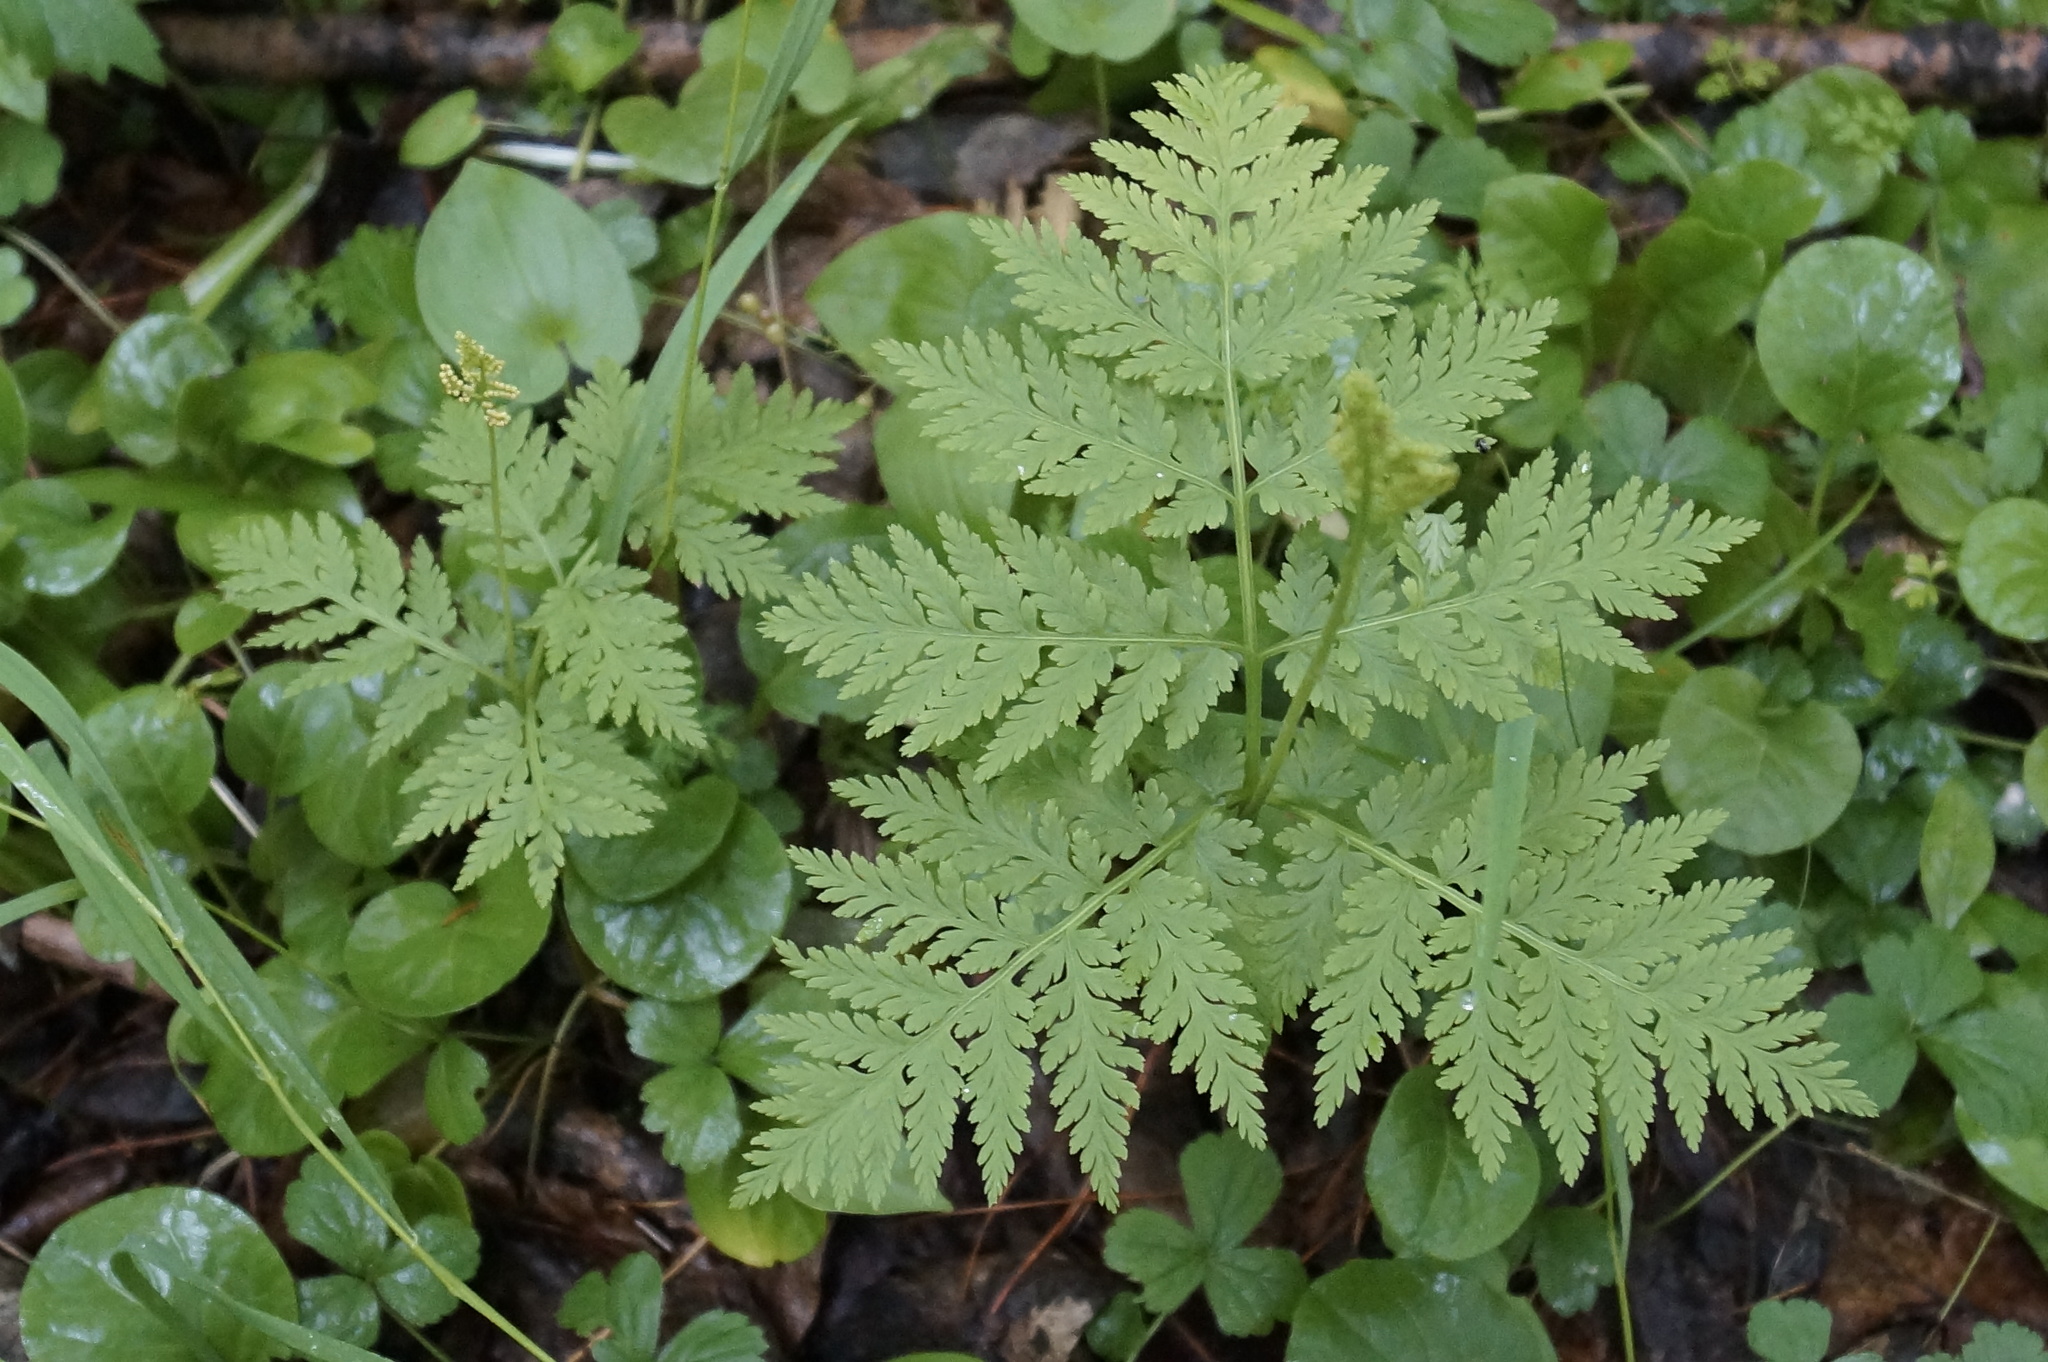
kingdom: Plantae
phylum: Tracheophyta
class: Polypodiopsida
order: Ophioglossales
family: Ophioglossaceae
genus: Botrypus
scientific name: Botrypus virginianus
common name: Common grapefern
